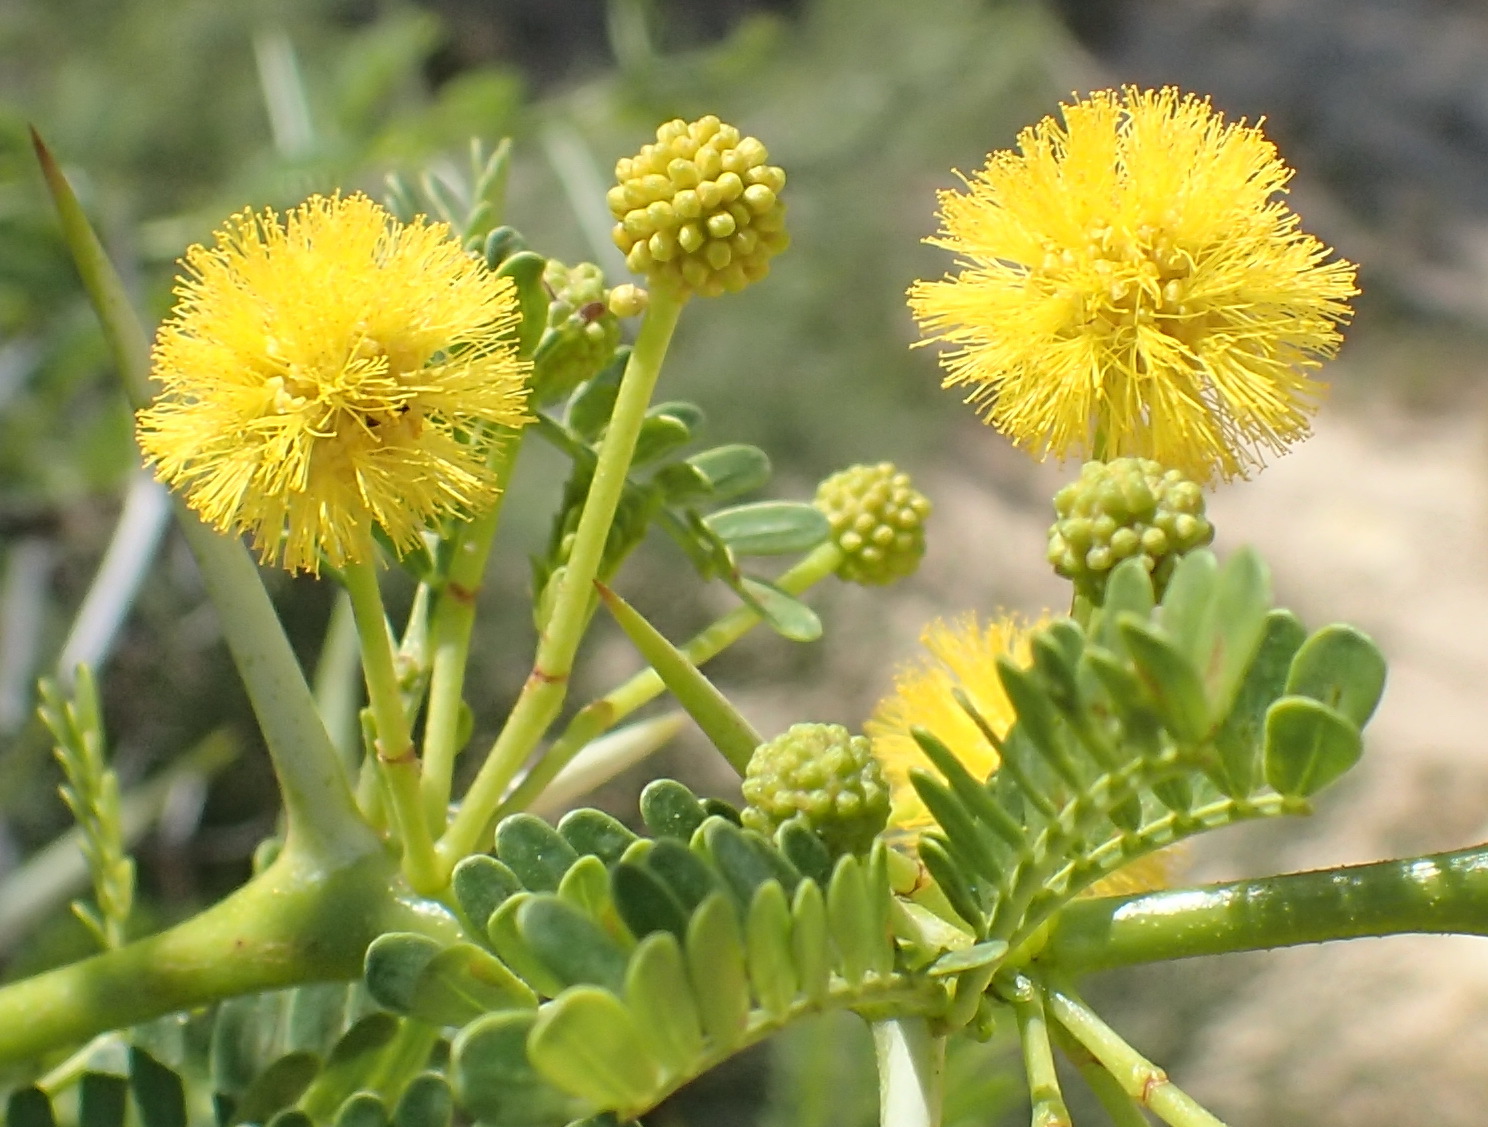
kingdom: Plantae
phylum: Tracheophyta
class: Magnoliopsida
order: Fabales
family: Fabaceae
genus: Vachellia
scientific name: Vachellia karroo
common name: Sweet thorn
